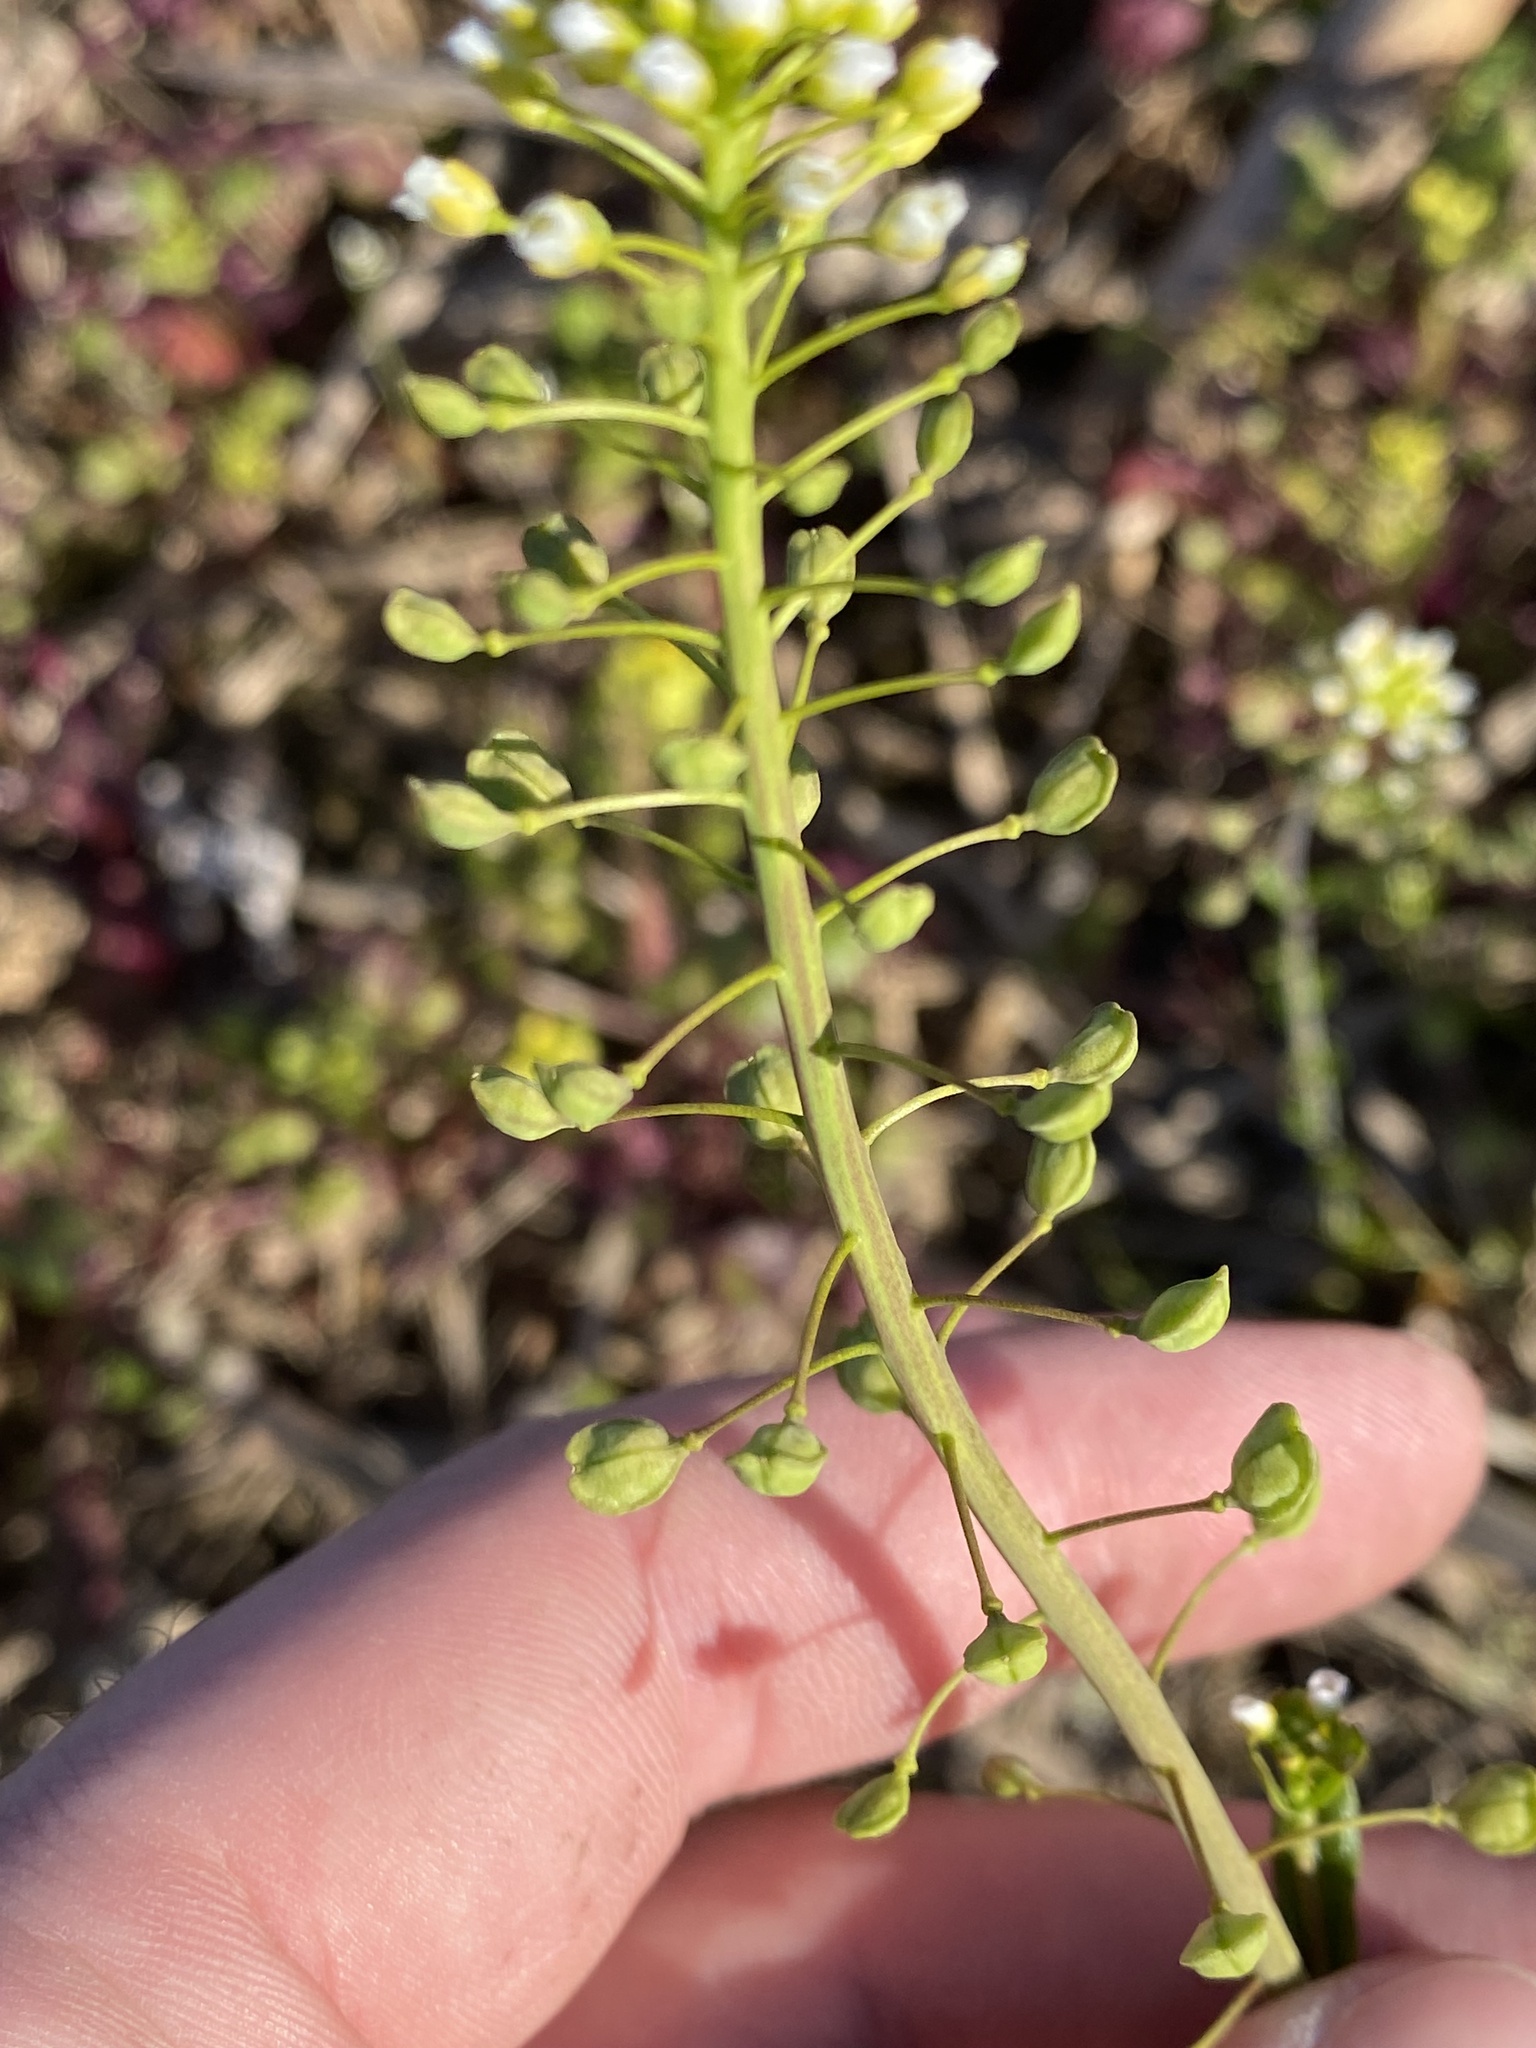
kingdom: Plantae
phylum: Tracheophyta
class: Magnoliopsida
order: Brassicales
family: Brassicaceae
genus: Mummenhoffia
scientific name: Mummenhoffia alliacea
